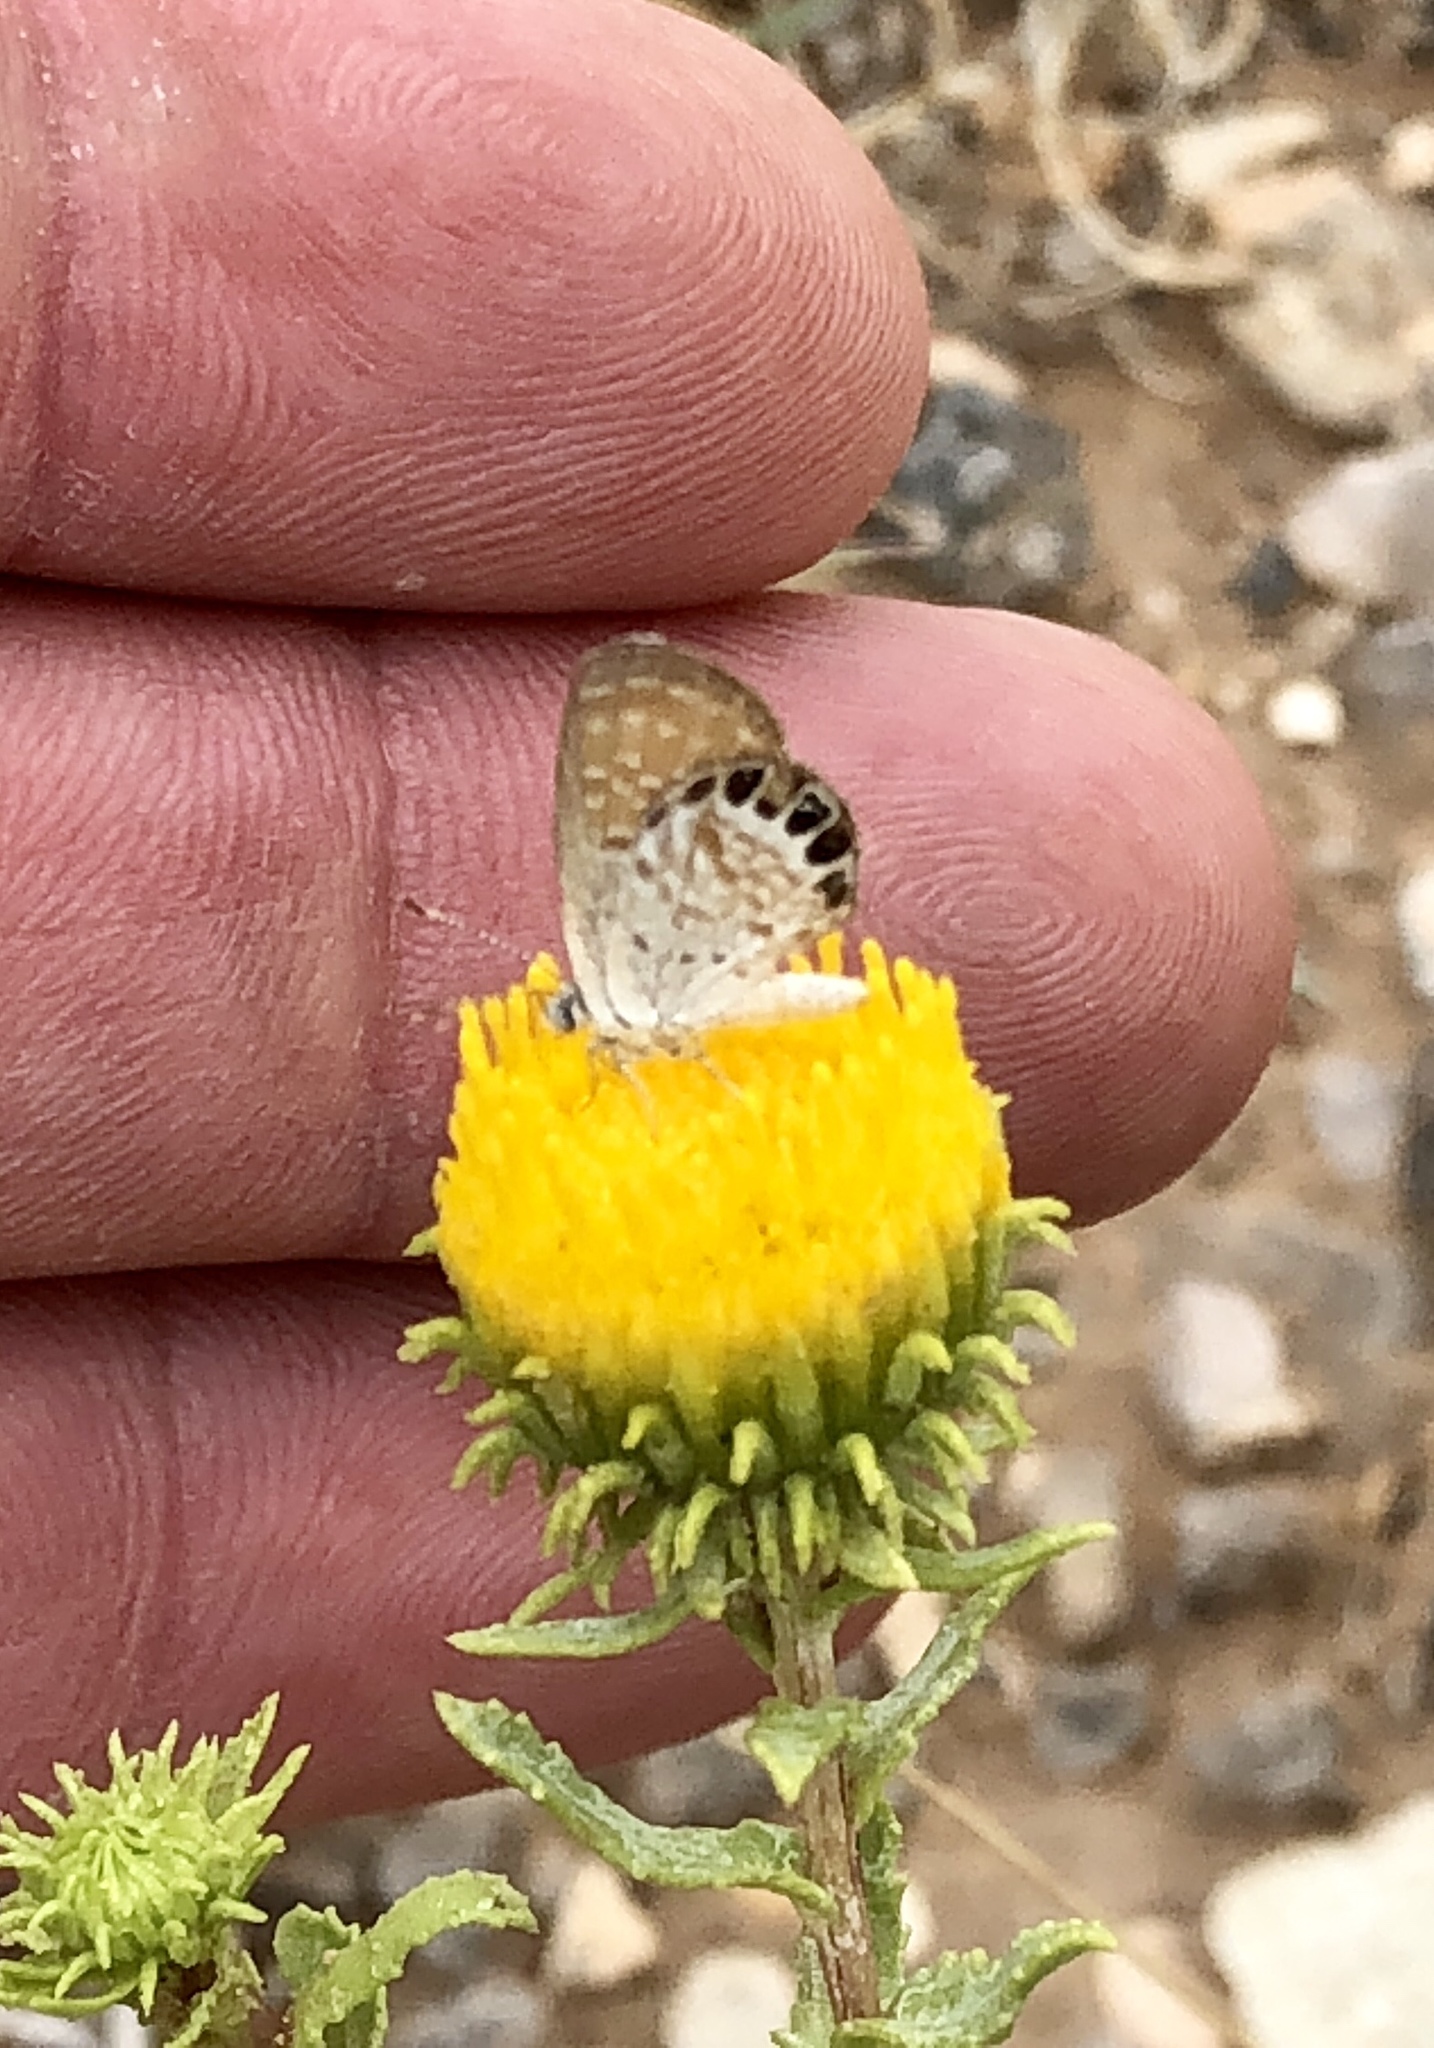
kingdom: Animalia
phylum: Arthropoda
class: Insecta
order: Lepidoptera
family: Lycaenidae
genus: Brephidium
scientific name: Brephidium exilis
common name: Pygmy blue
